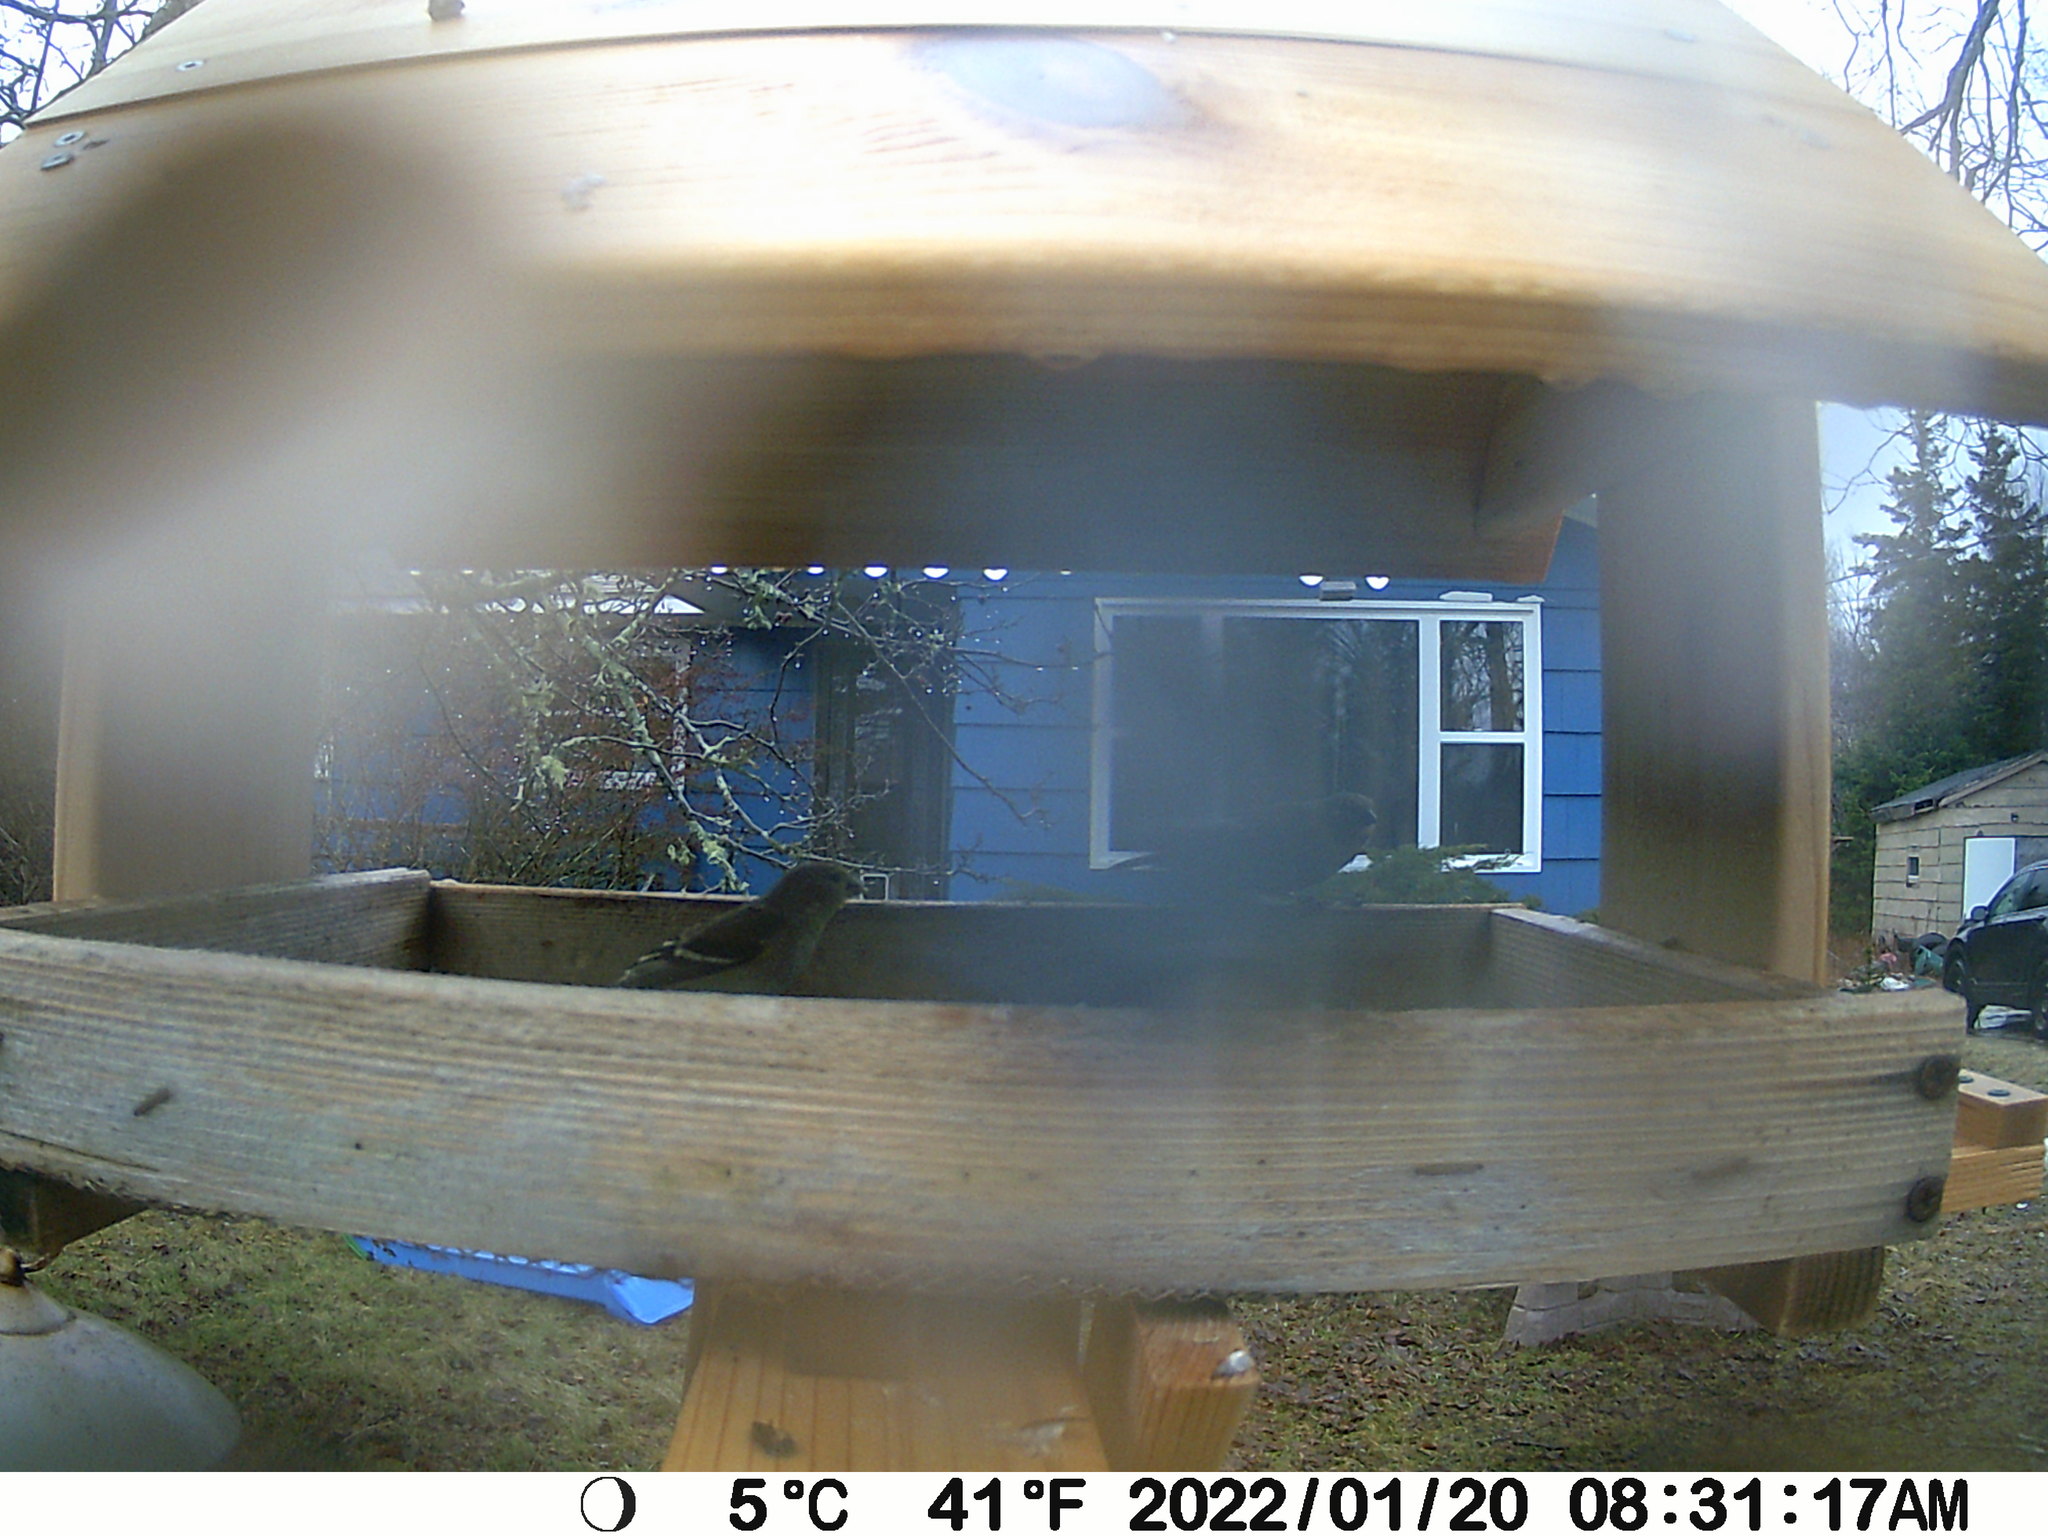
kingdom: Animalia
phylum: Chordata
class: Aves
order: Passeriformes
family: Fringillidae
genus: Spinus
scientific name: Spinus tristis
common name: American goldfinch
